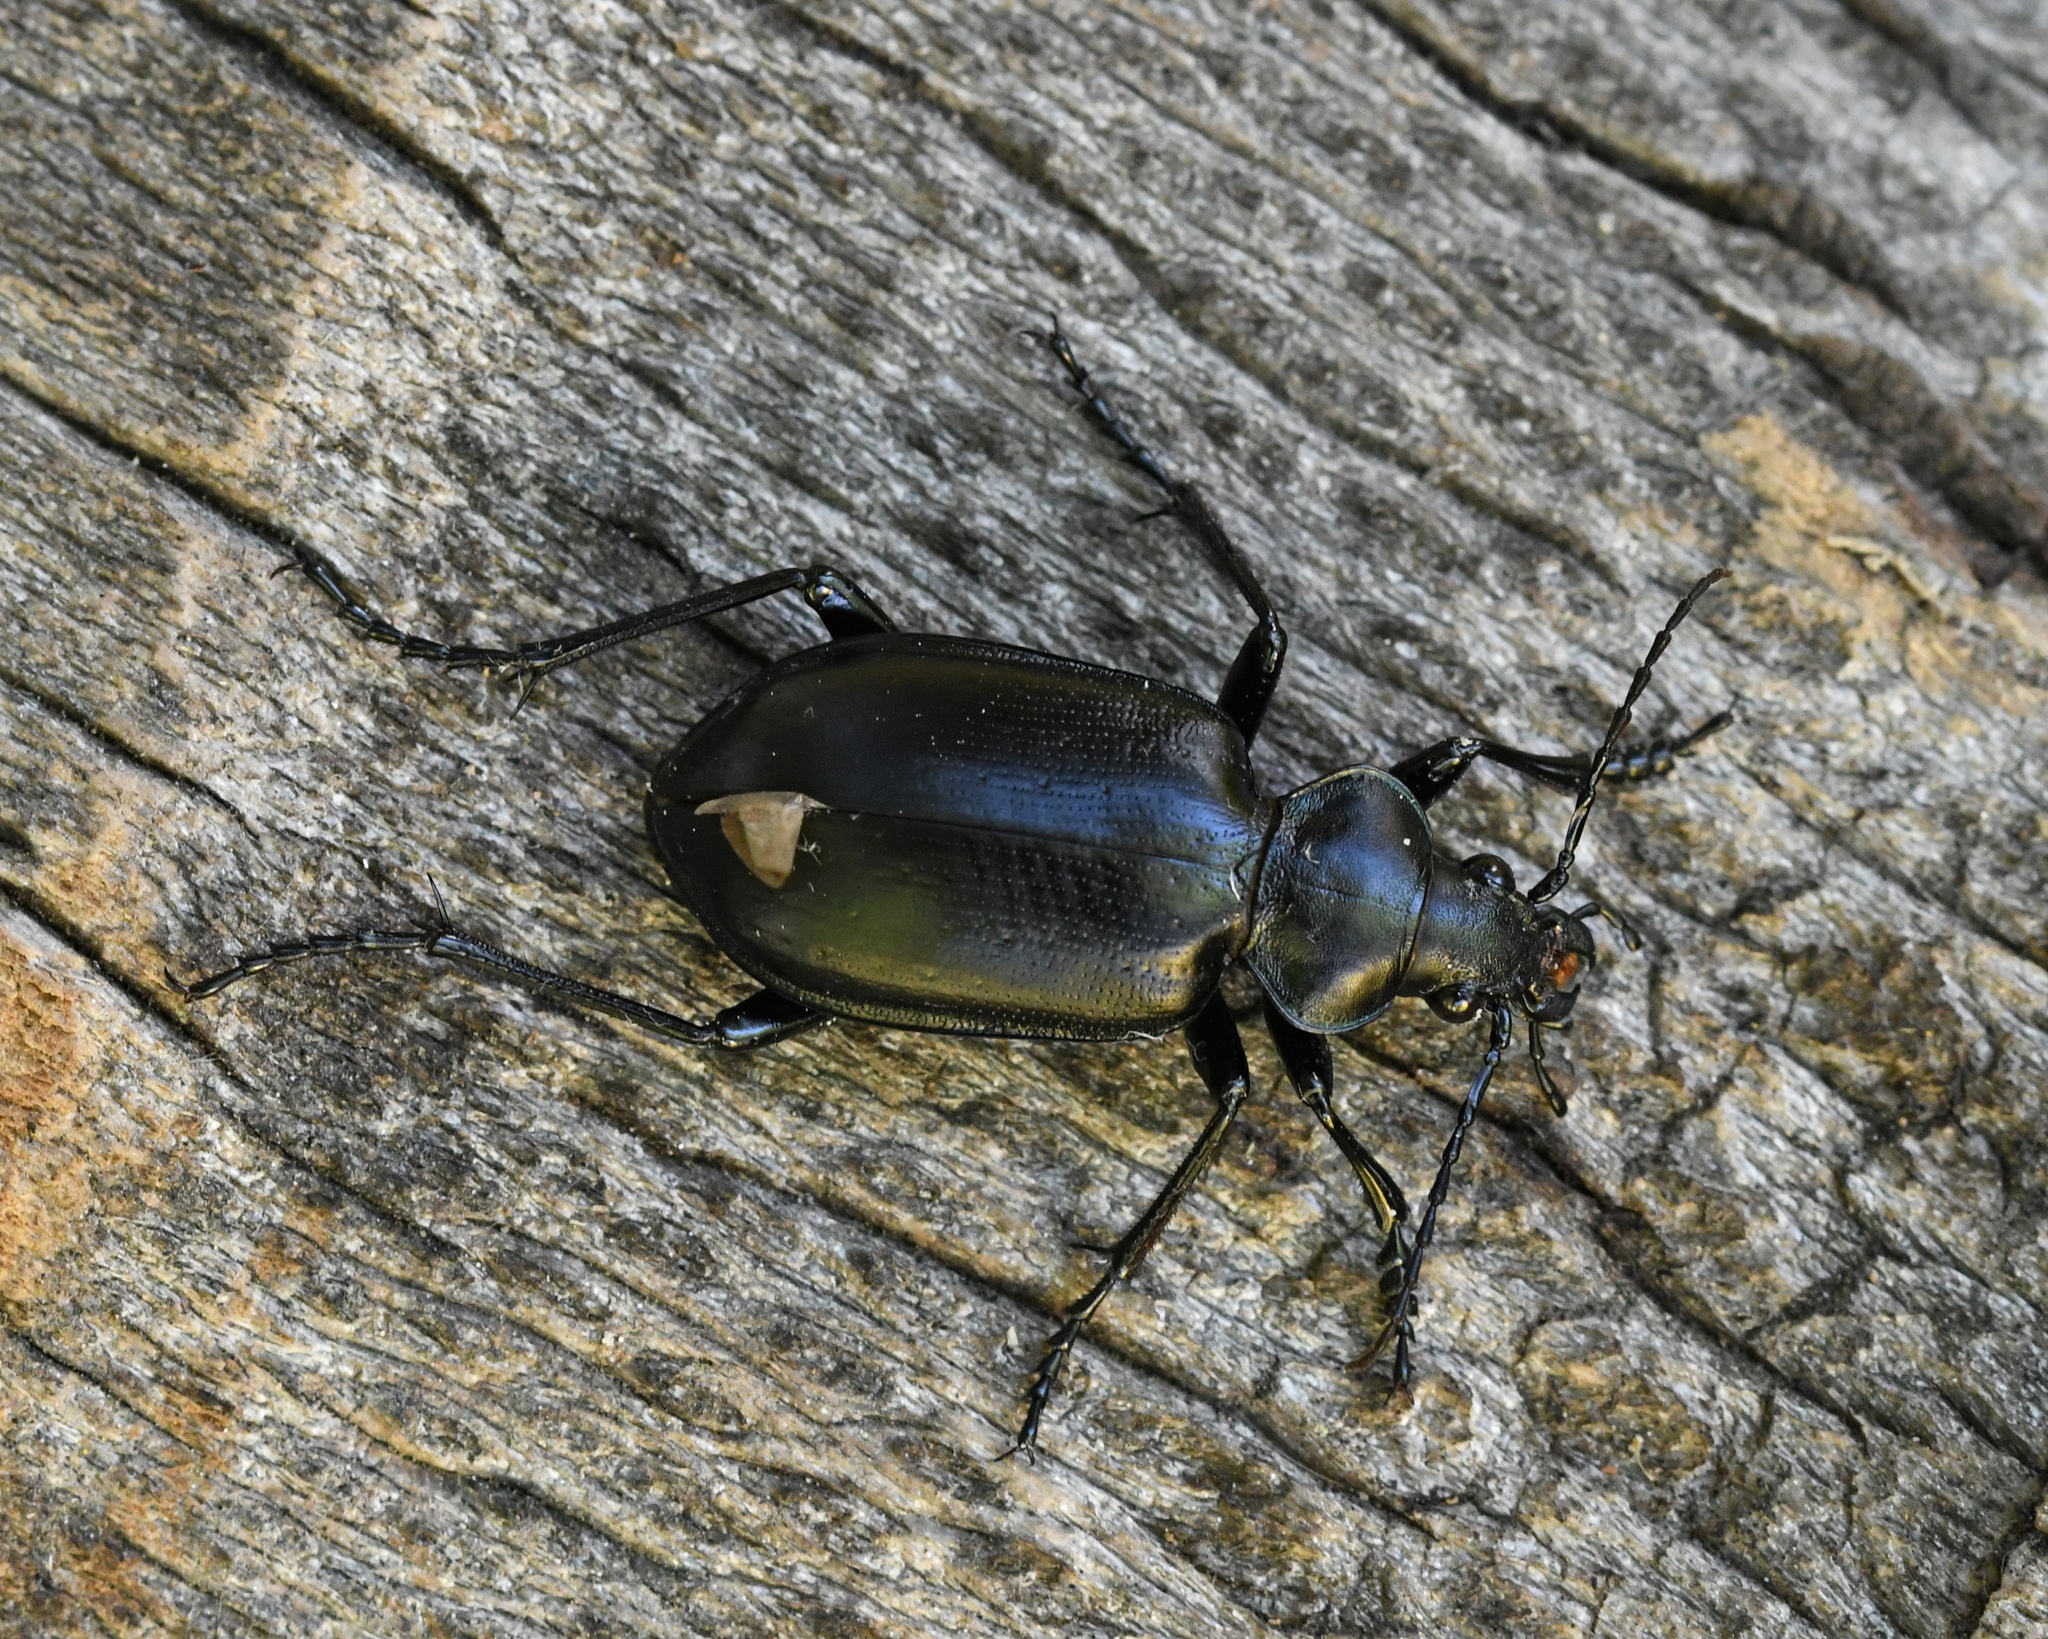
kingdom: Animalia
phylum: Arthropoda
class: Insecta
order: Coleoptera
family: Carabidae
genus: Calosoma
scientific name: Calosoma sayi
